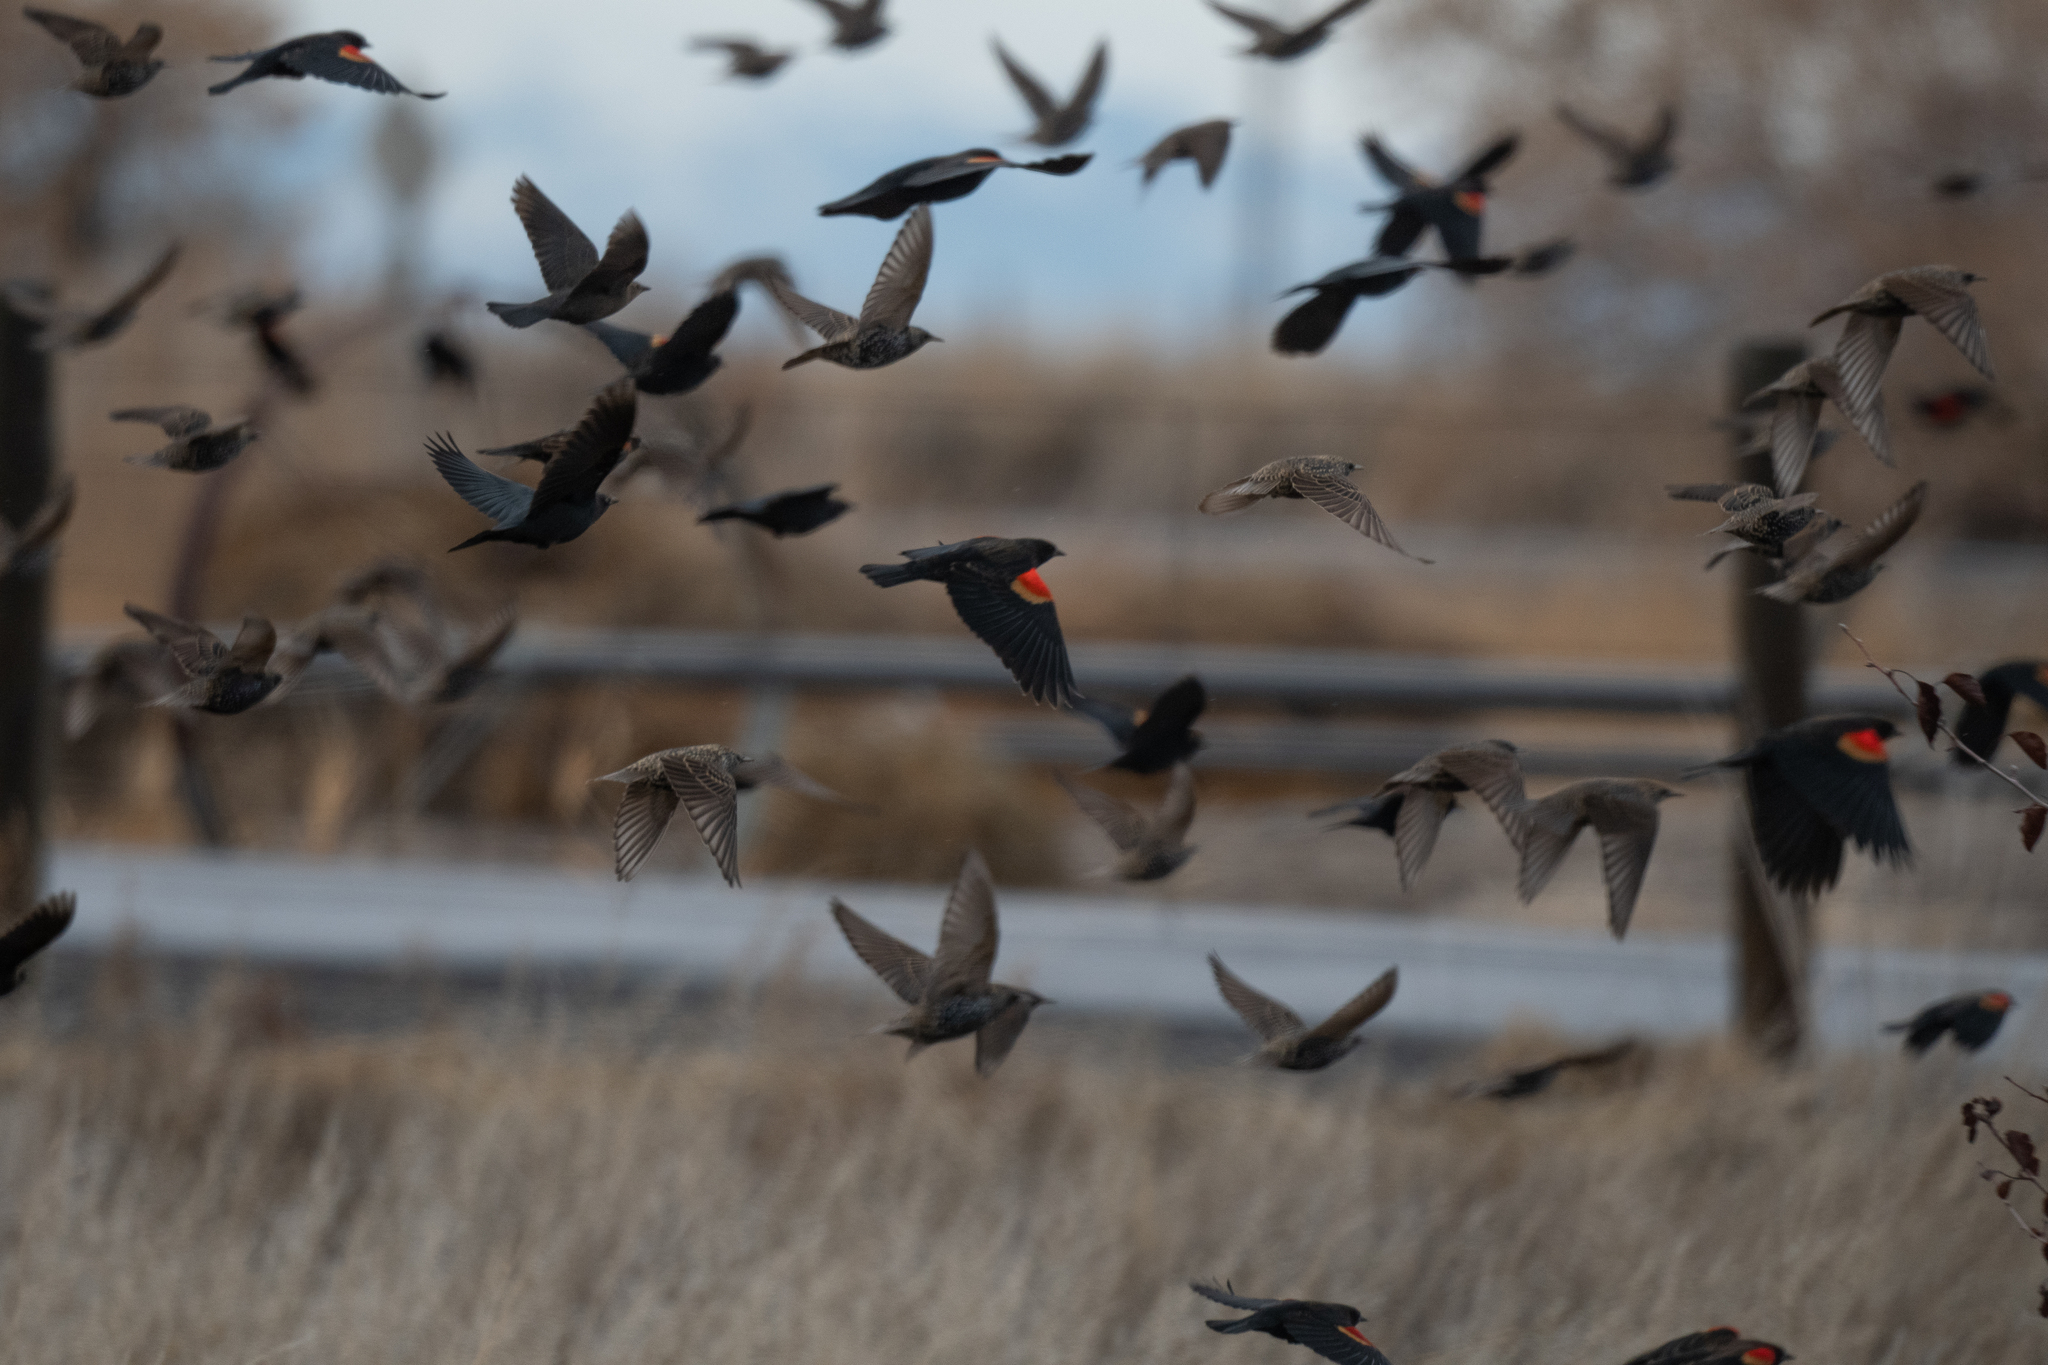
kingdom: Animalia
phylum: Chordata
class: Aves
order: Passeriformes
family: Icteridae
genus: Agelaius
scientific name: Agelaius phoeniceus
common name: Red-winged blackbird
